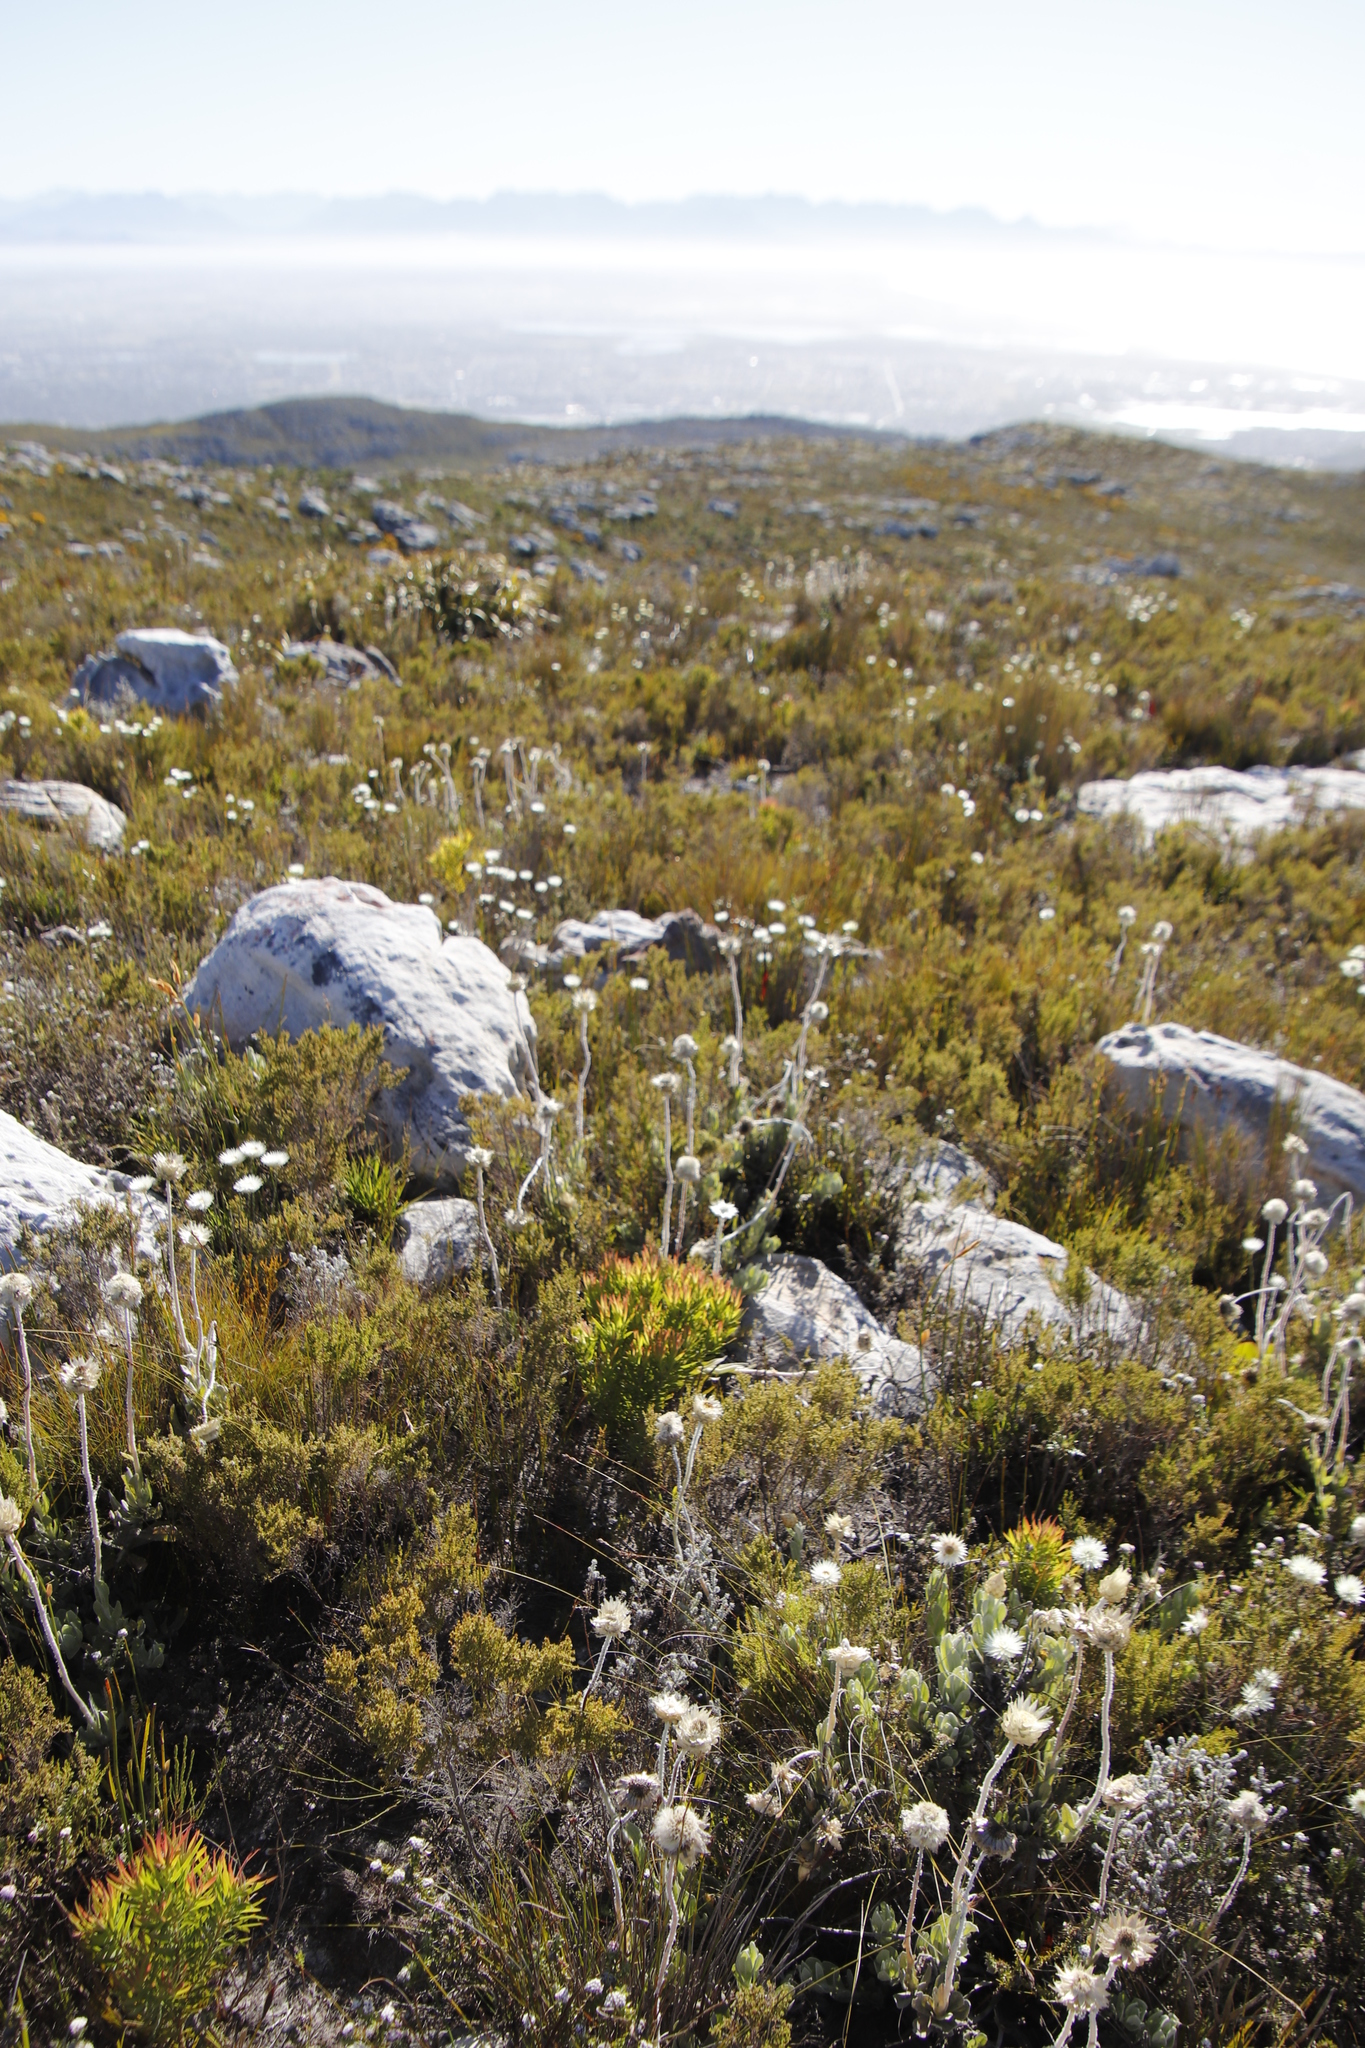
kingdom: Plantae
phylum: Tracheophyta
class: Magnoliopsida
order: Asterales
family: Asteraceae
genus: Syncarpha
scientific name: Syncarpha speciosissima
